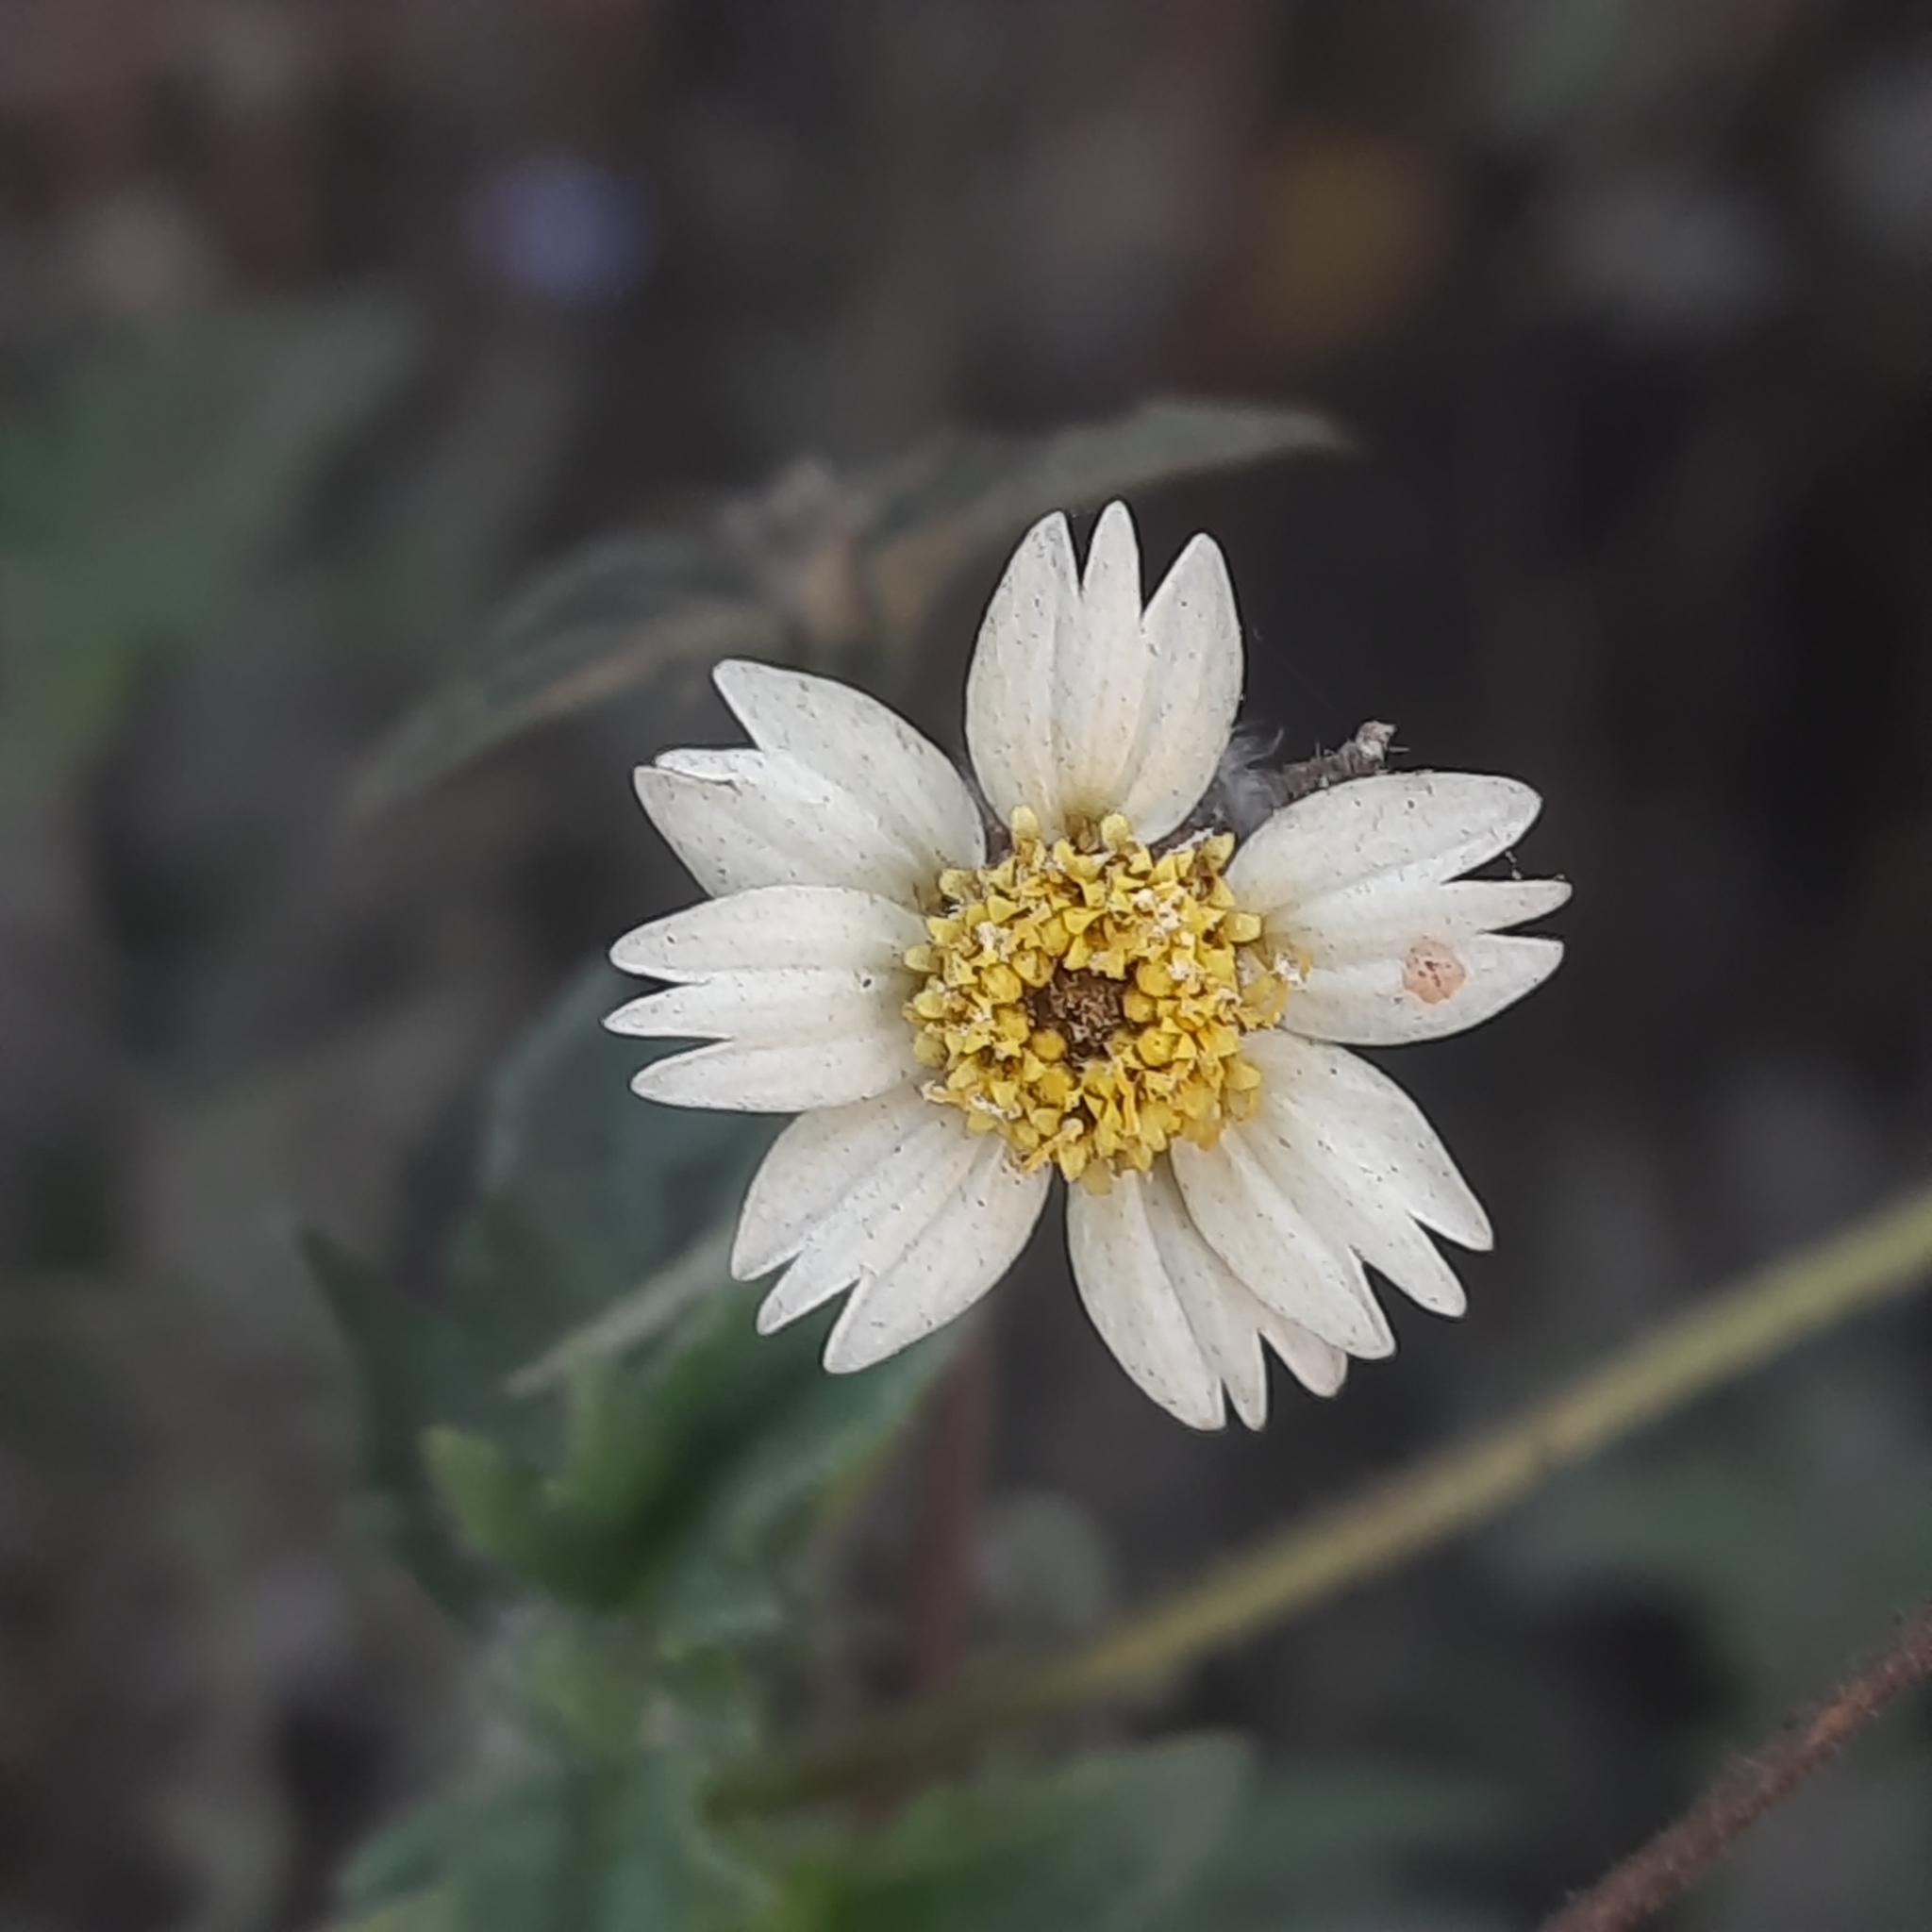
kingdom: Plantae
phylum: Tracheophyta
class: Magnoliopsida
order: Asterales
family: Asteraceae
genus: Tridax
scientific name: Tridax procumbens
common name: Coatbuttons
